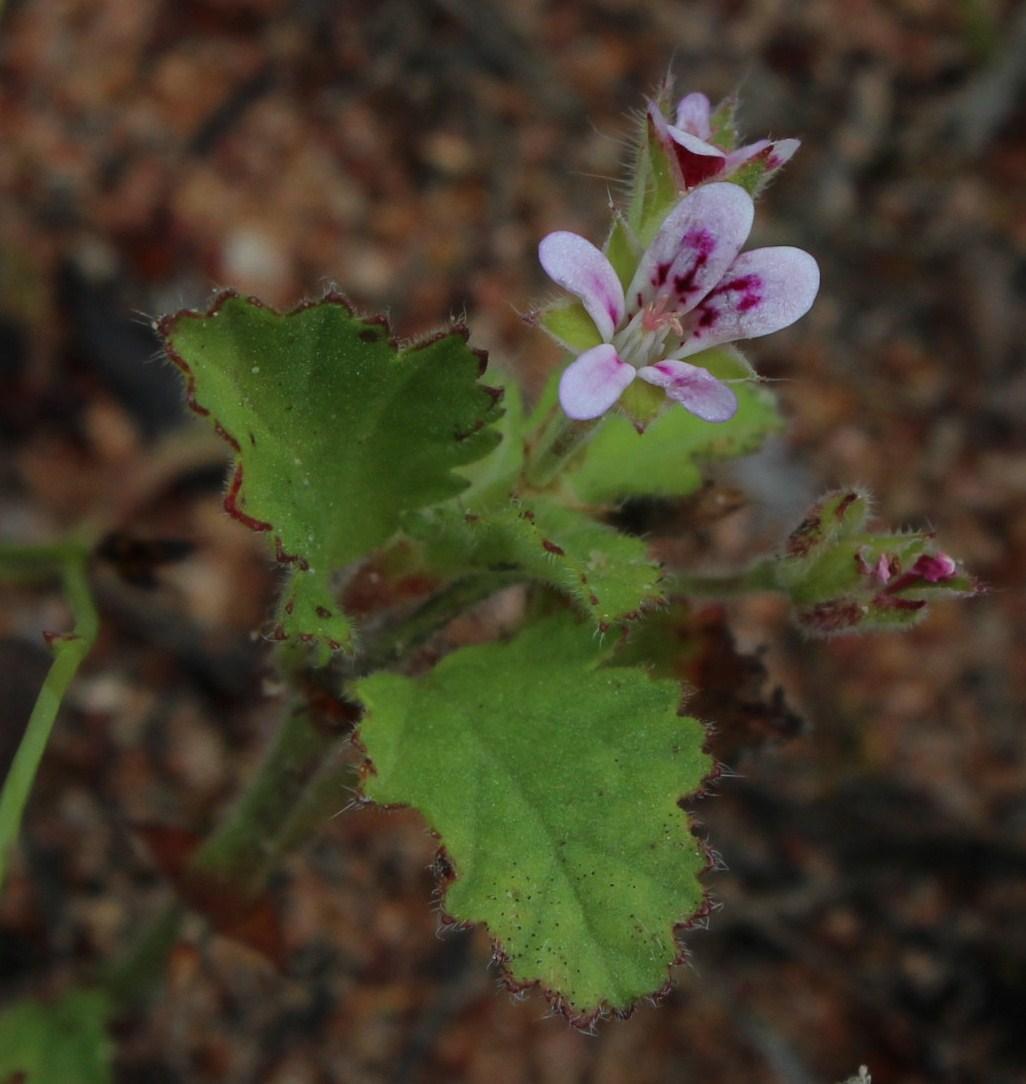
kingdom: Plantae
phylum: Tracheophyta
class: Magnoliopsida
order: Geraniales
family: Geraniaceae
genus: Pelargonium
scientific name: Pelargonium althaeoides
